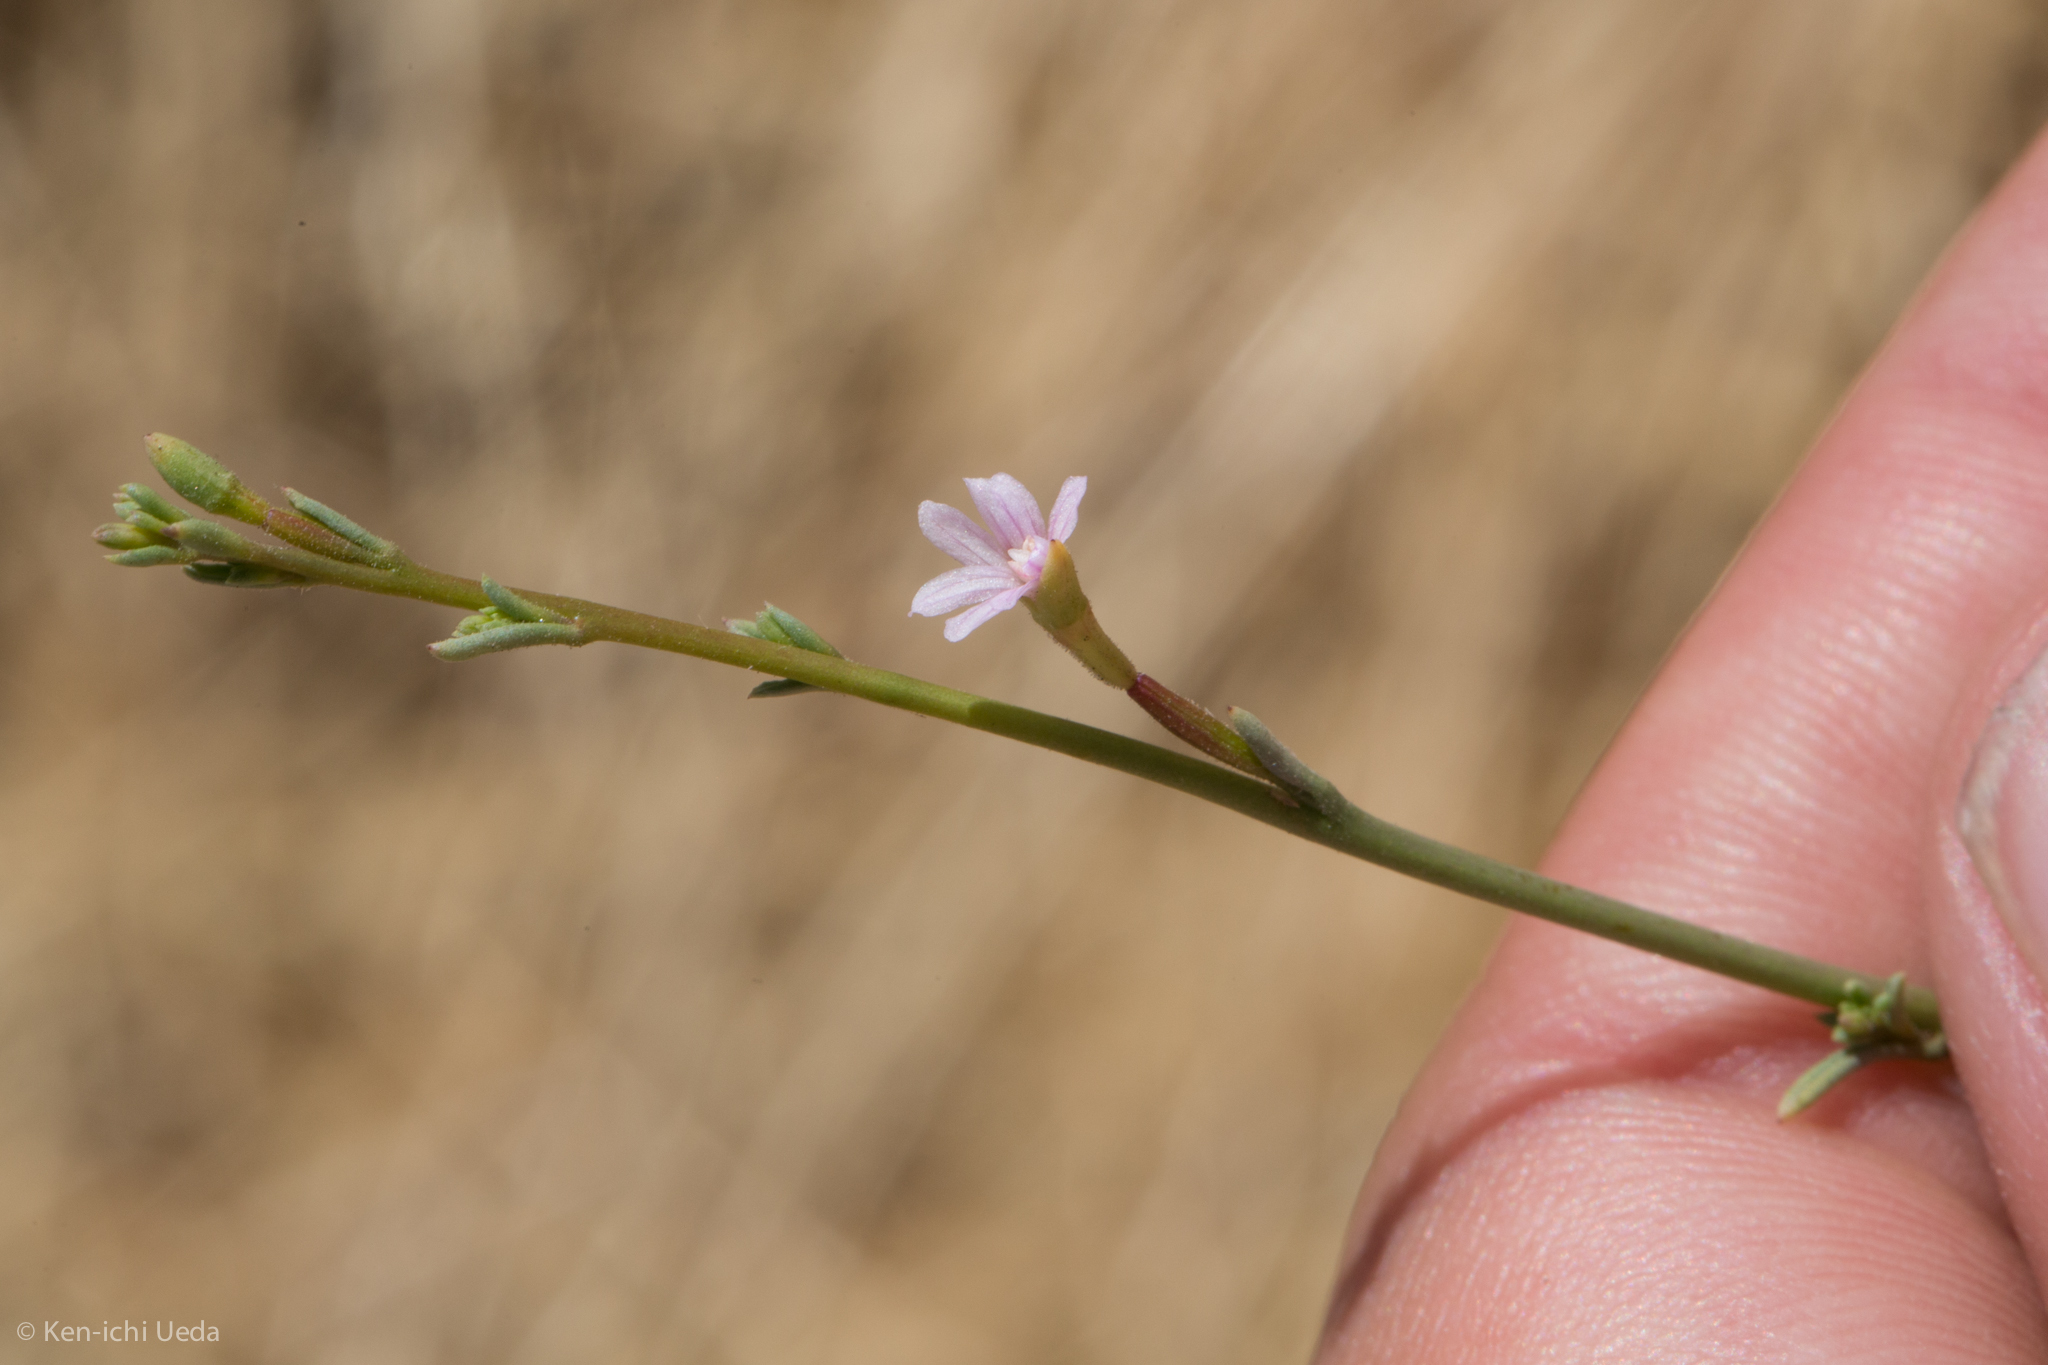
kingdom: Plantae
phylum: Tracheophyta
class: Magnoliopsida
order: Myrtales
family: Onagraceae
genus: Epilobium
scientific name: Epilobium brachycarpum
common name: Annual willowherb
